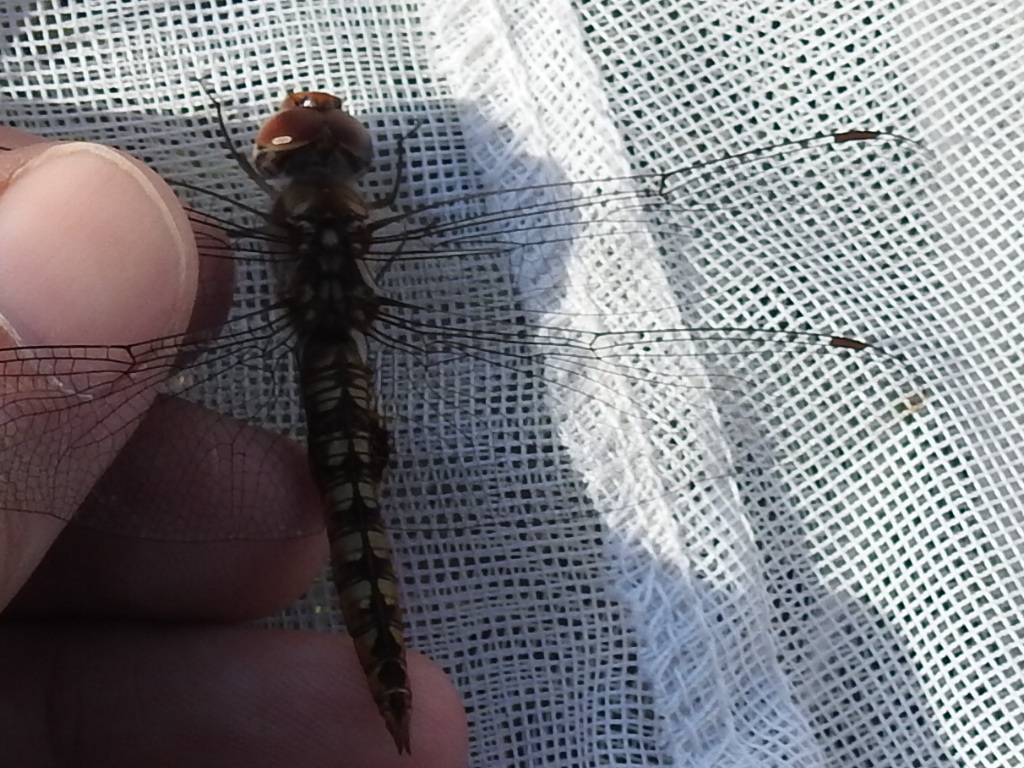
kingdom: Animalia
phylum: Arthropoda
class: Insecta
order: Odonata
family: Libellulidae
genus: Pantala
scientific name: Pantala hymenaea
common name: Spot-winged glider
